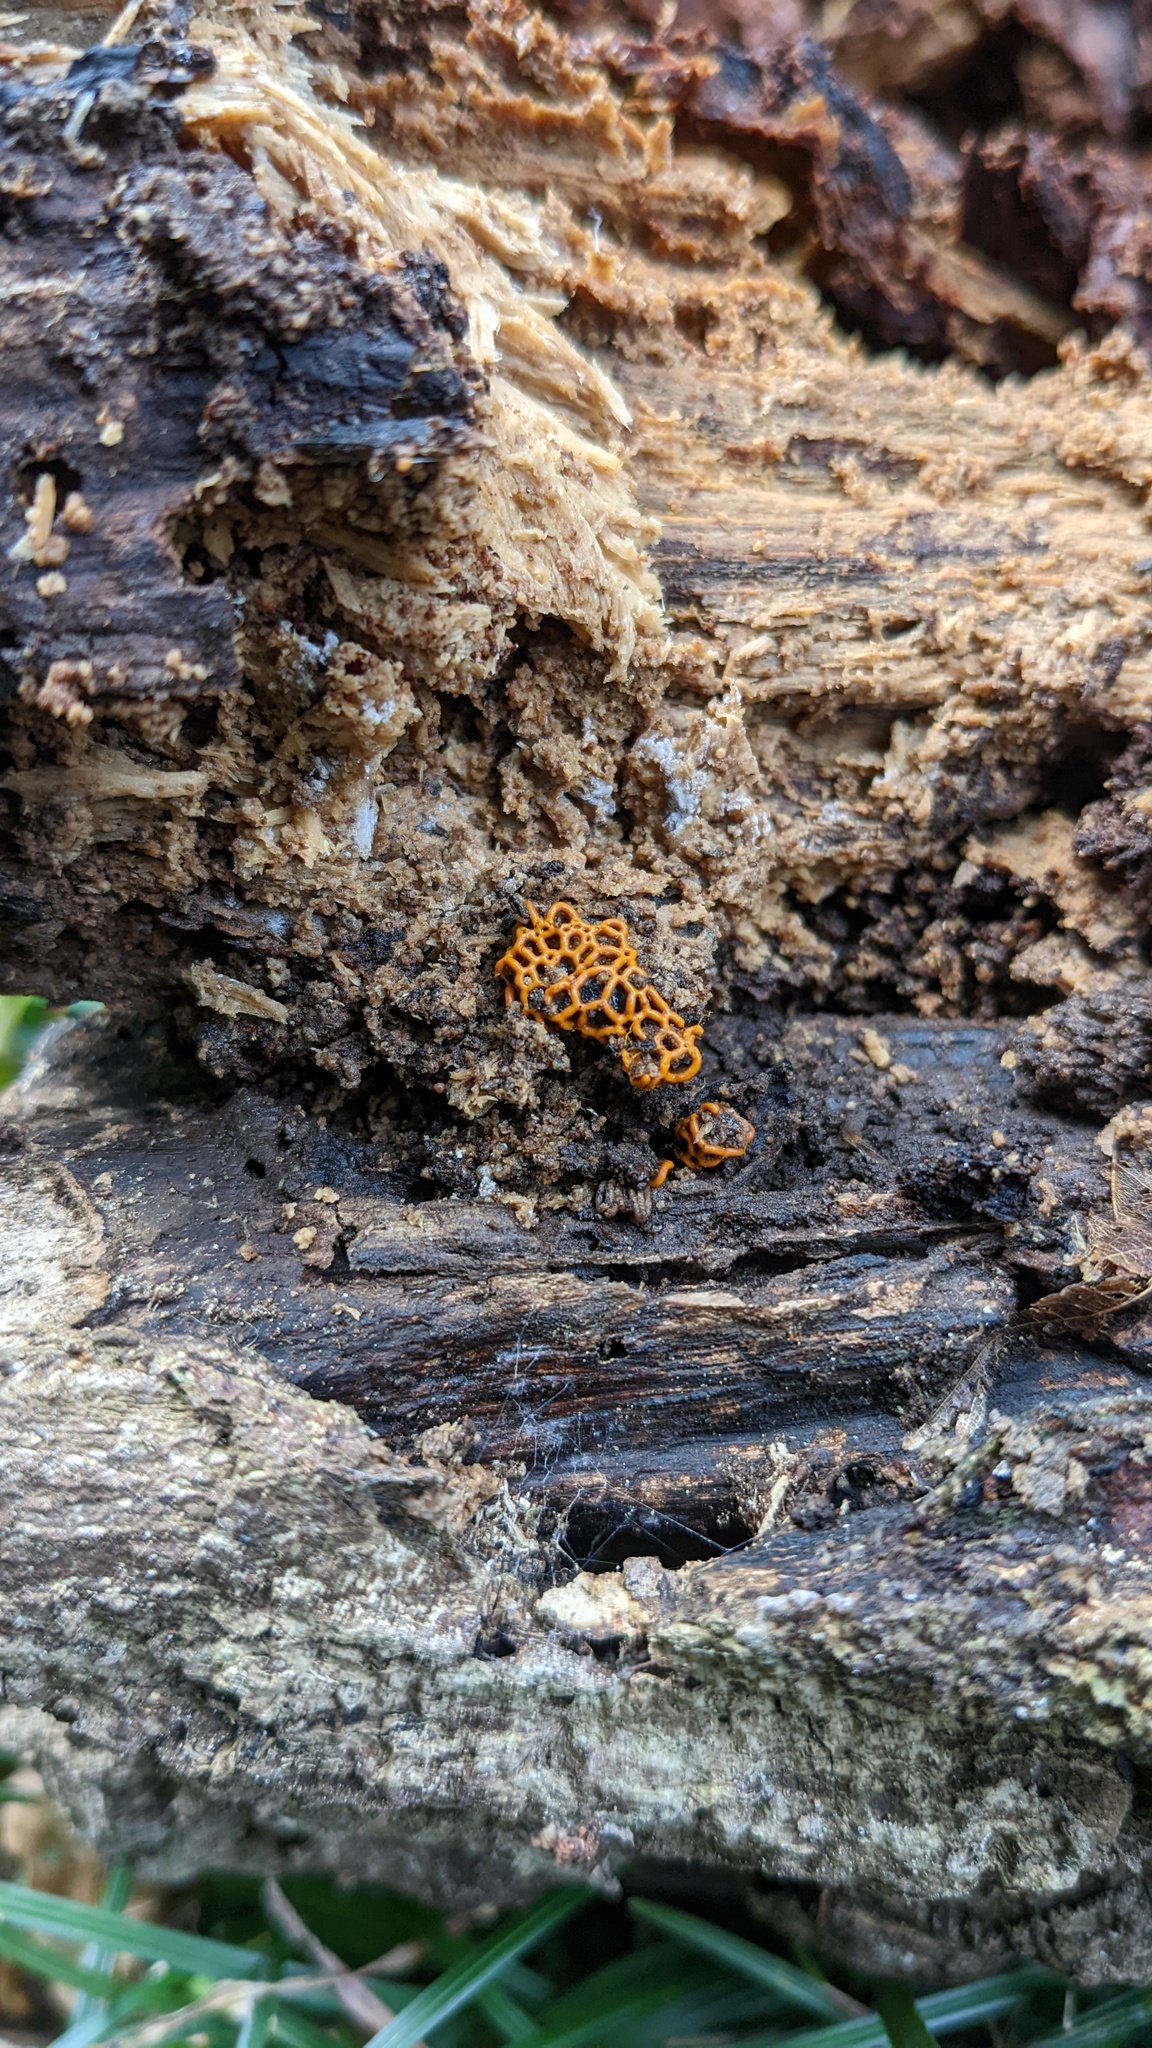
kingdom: Protozoa
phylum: Mycetozoa
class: Myxomycetes
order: Trichiales
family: Arcyriaceae
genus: Hemitrichia
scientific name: Hemitrichia serpula
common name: Pretzel slime mold
